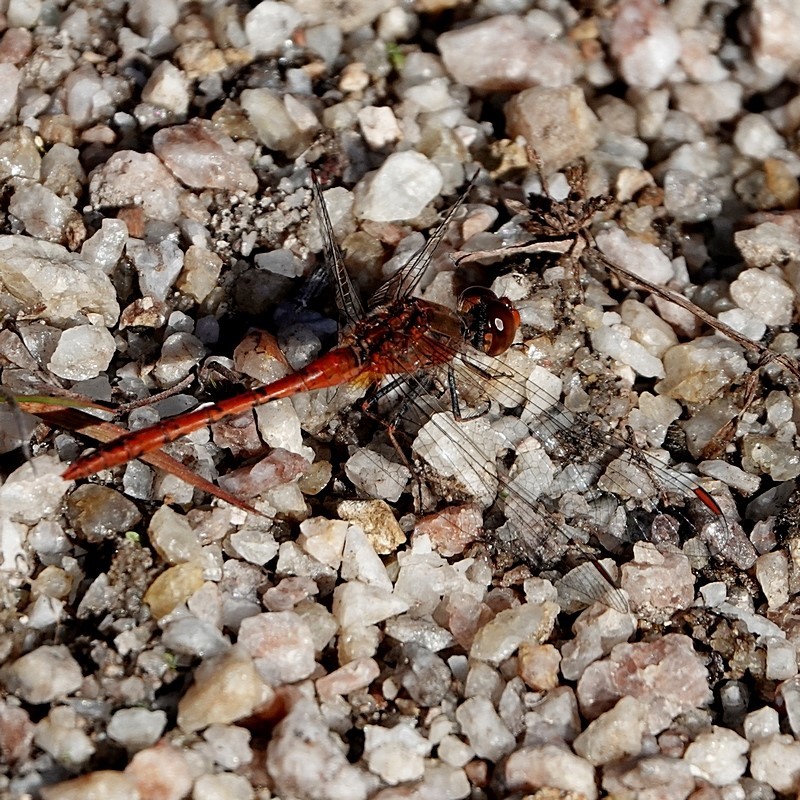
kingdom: Animalia
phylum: Arthropoda
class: Insecta
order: Odonata
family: Libellulidae
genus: Diplacodes
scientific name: Diplacodes bipunctata
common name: Red percher dragonfly
